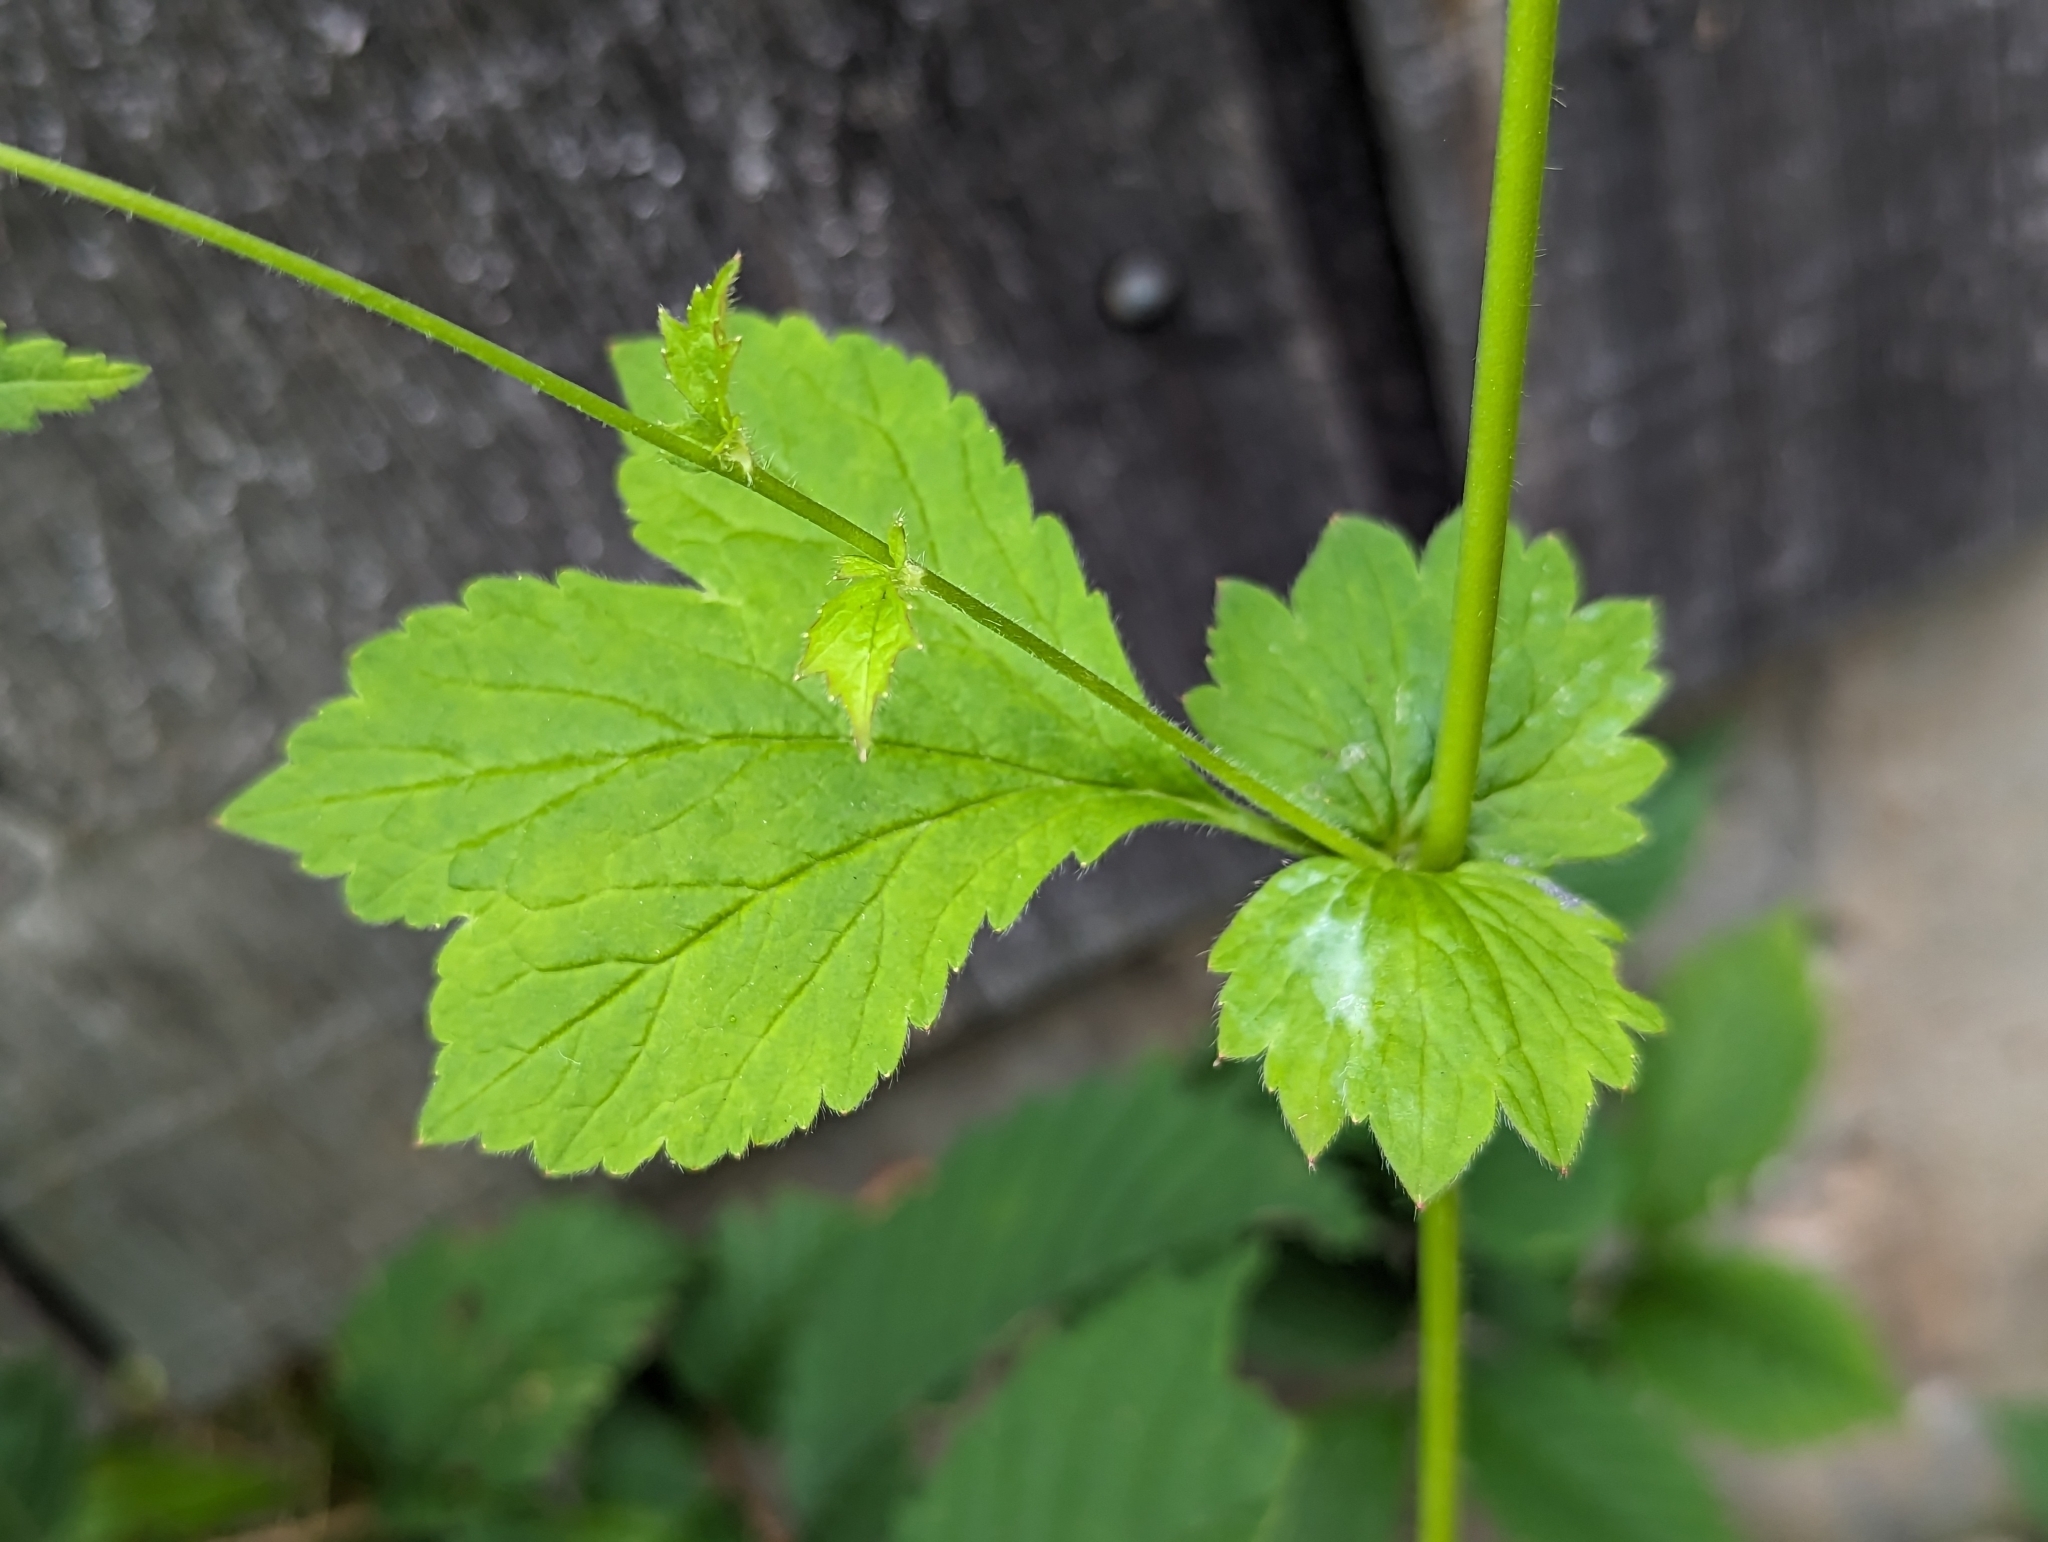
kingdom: Plantae
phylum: Tracheophyta
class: Magnoliopsida
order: Rosales
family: Rosaceae
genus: Geum
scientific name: Geum urbanum
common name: Wood avens
